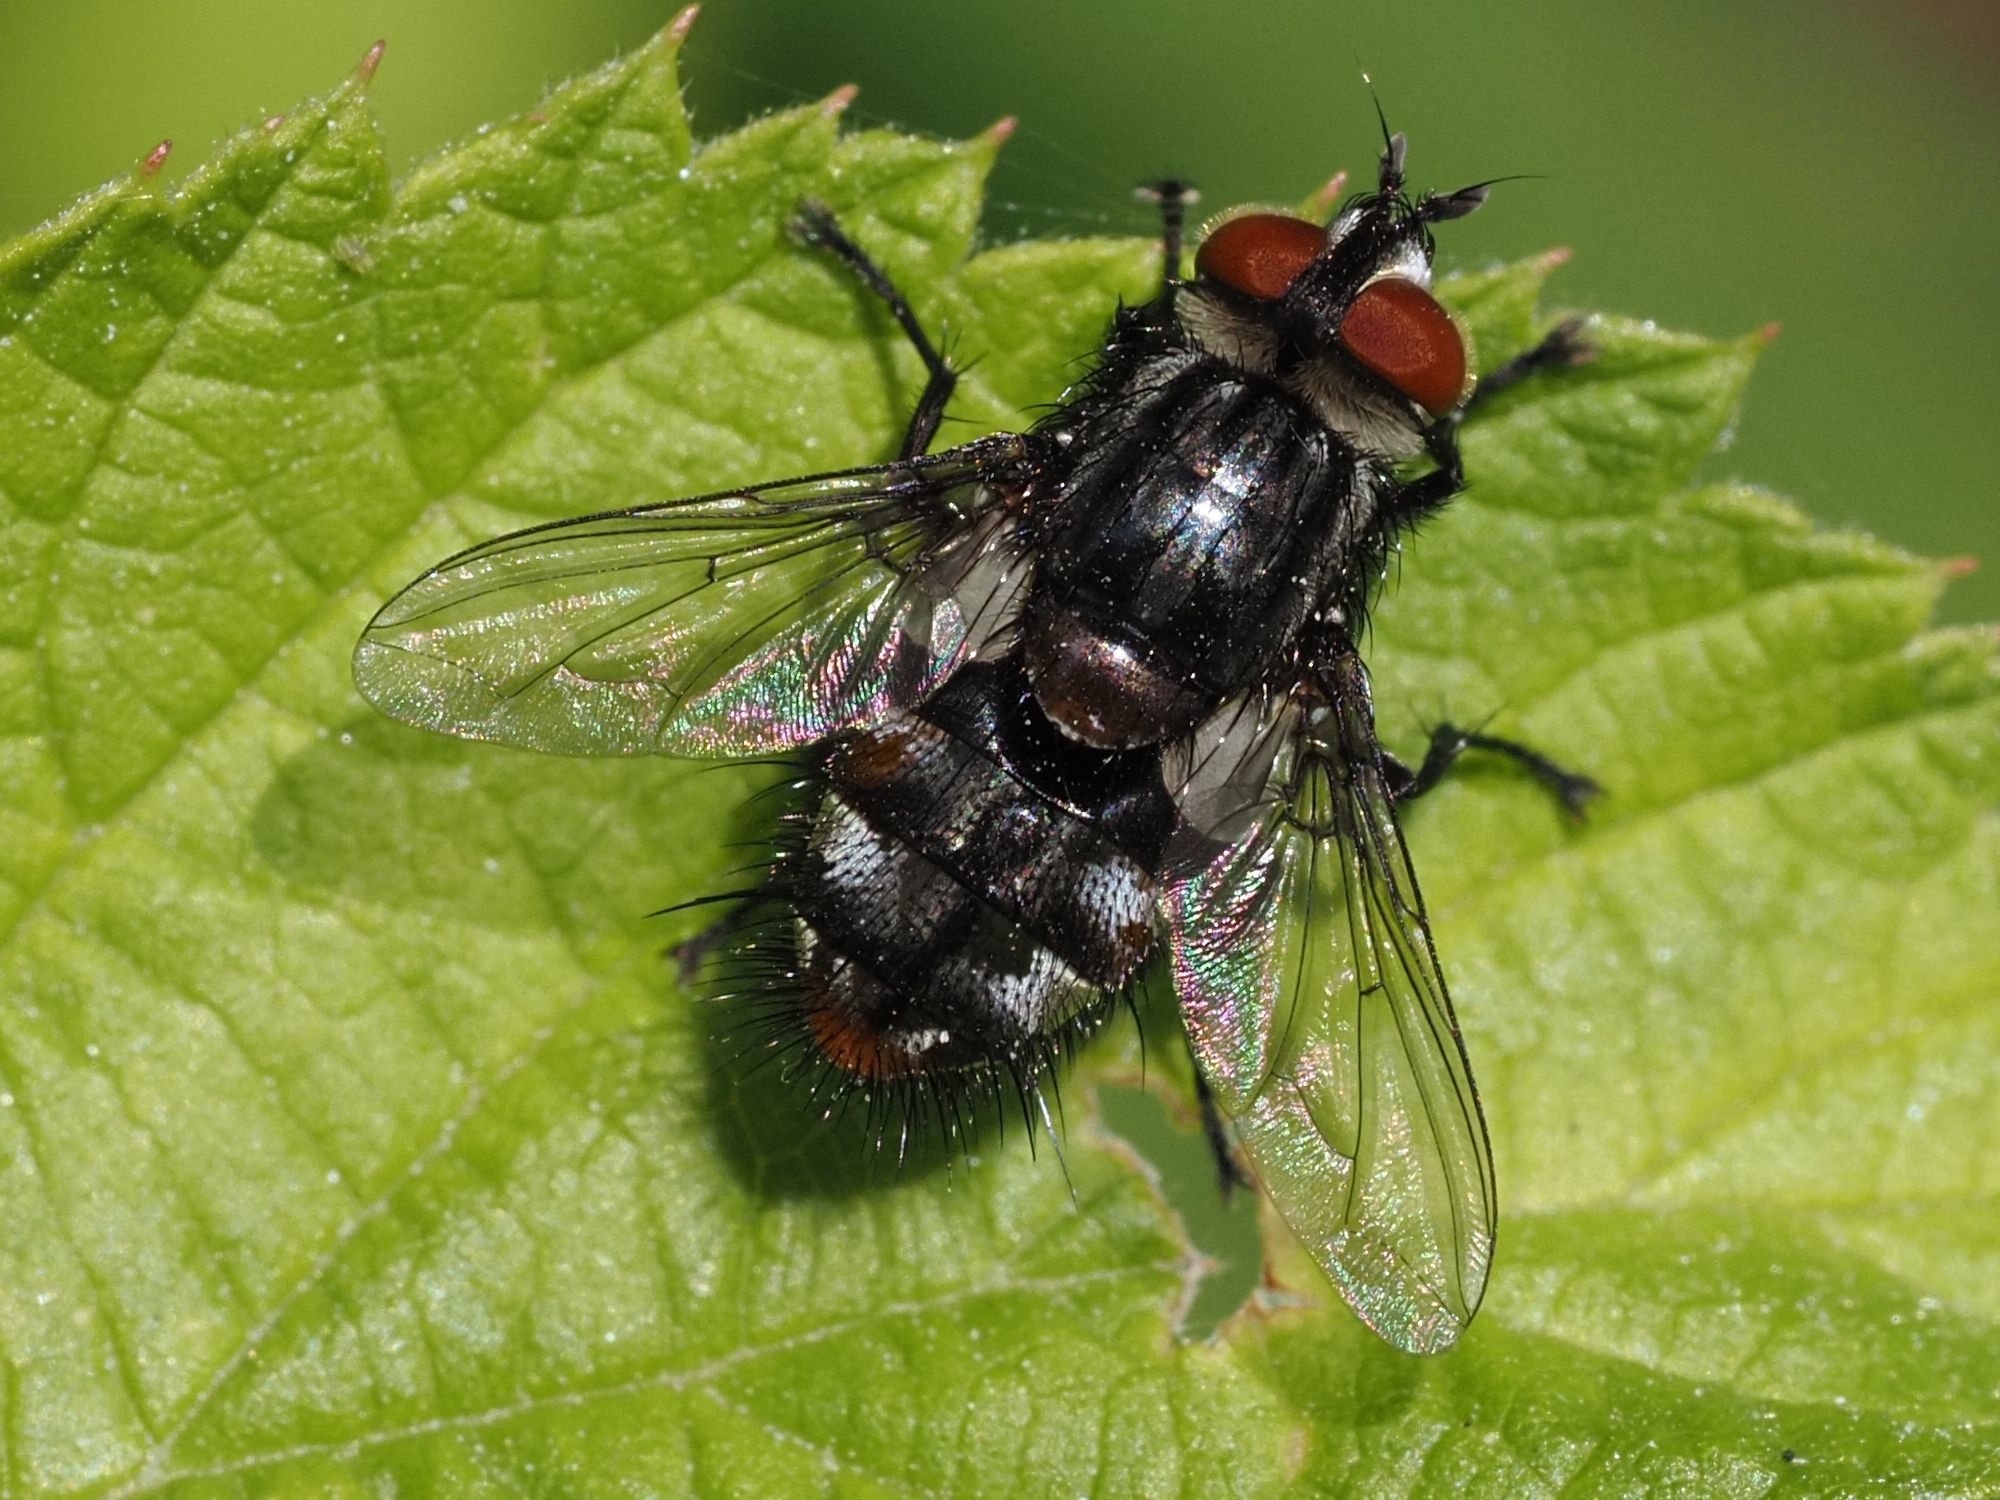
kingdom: Animalia
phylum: Arthropoda
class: Insecta
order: Diptera
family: Tachinidae
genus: Winthemia
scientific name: Winthemia quadripustulata
